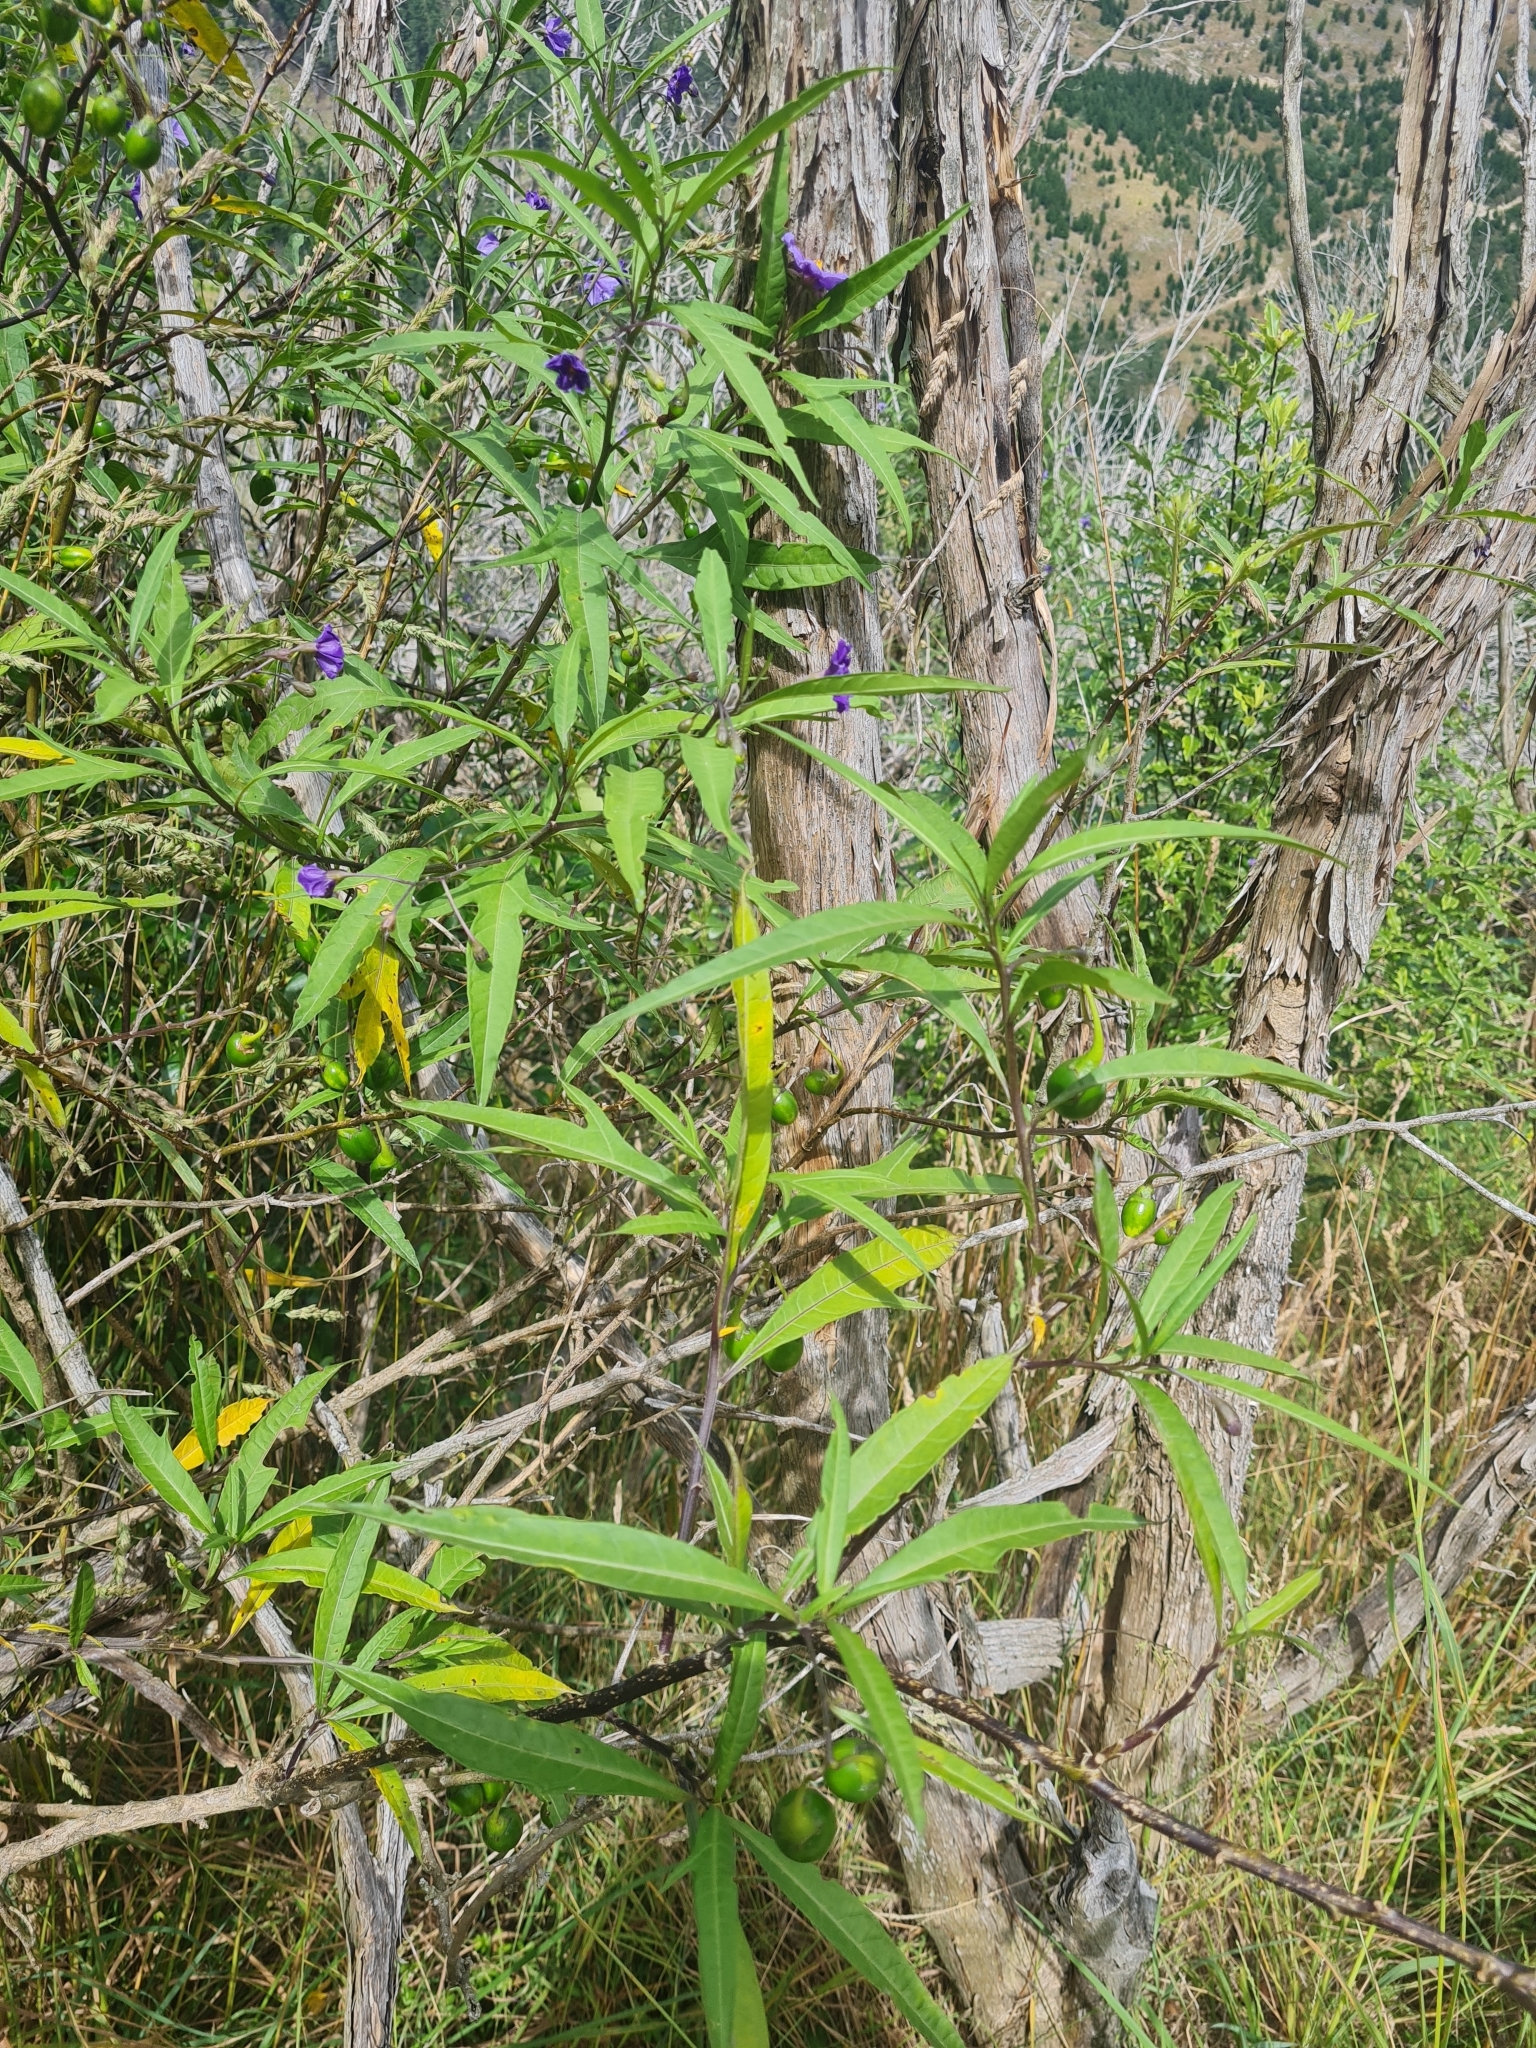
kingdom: Plantae
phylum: Tracheophyta
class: Magnoliopsida
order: Solanales
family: Solanaceae
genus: Solanum
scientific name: Solanum laciniatum
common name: Kangaroo-apple
